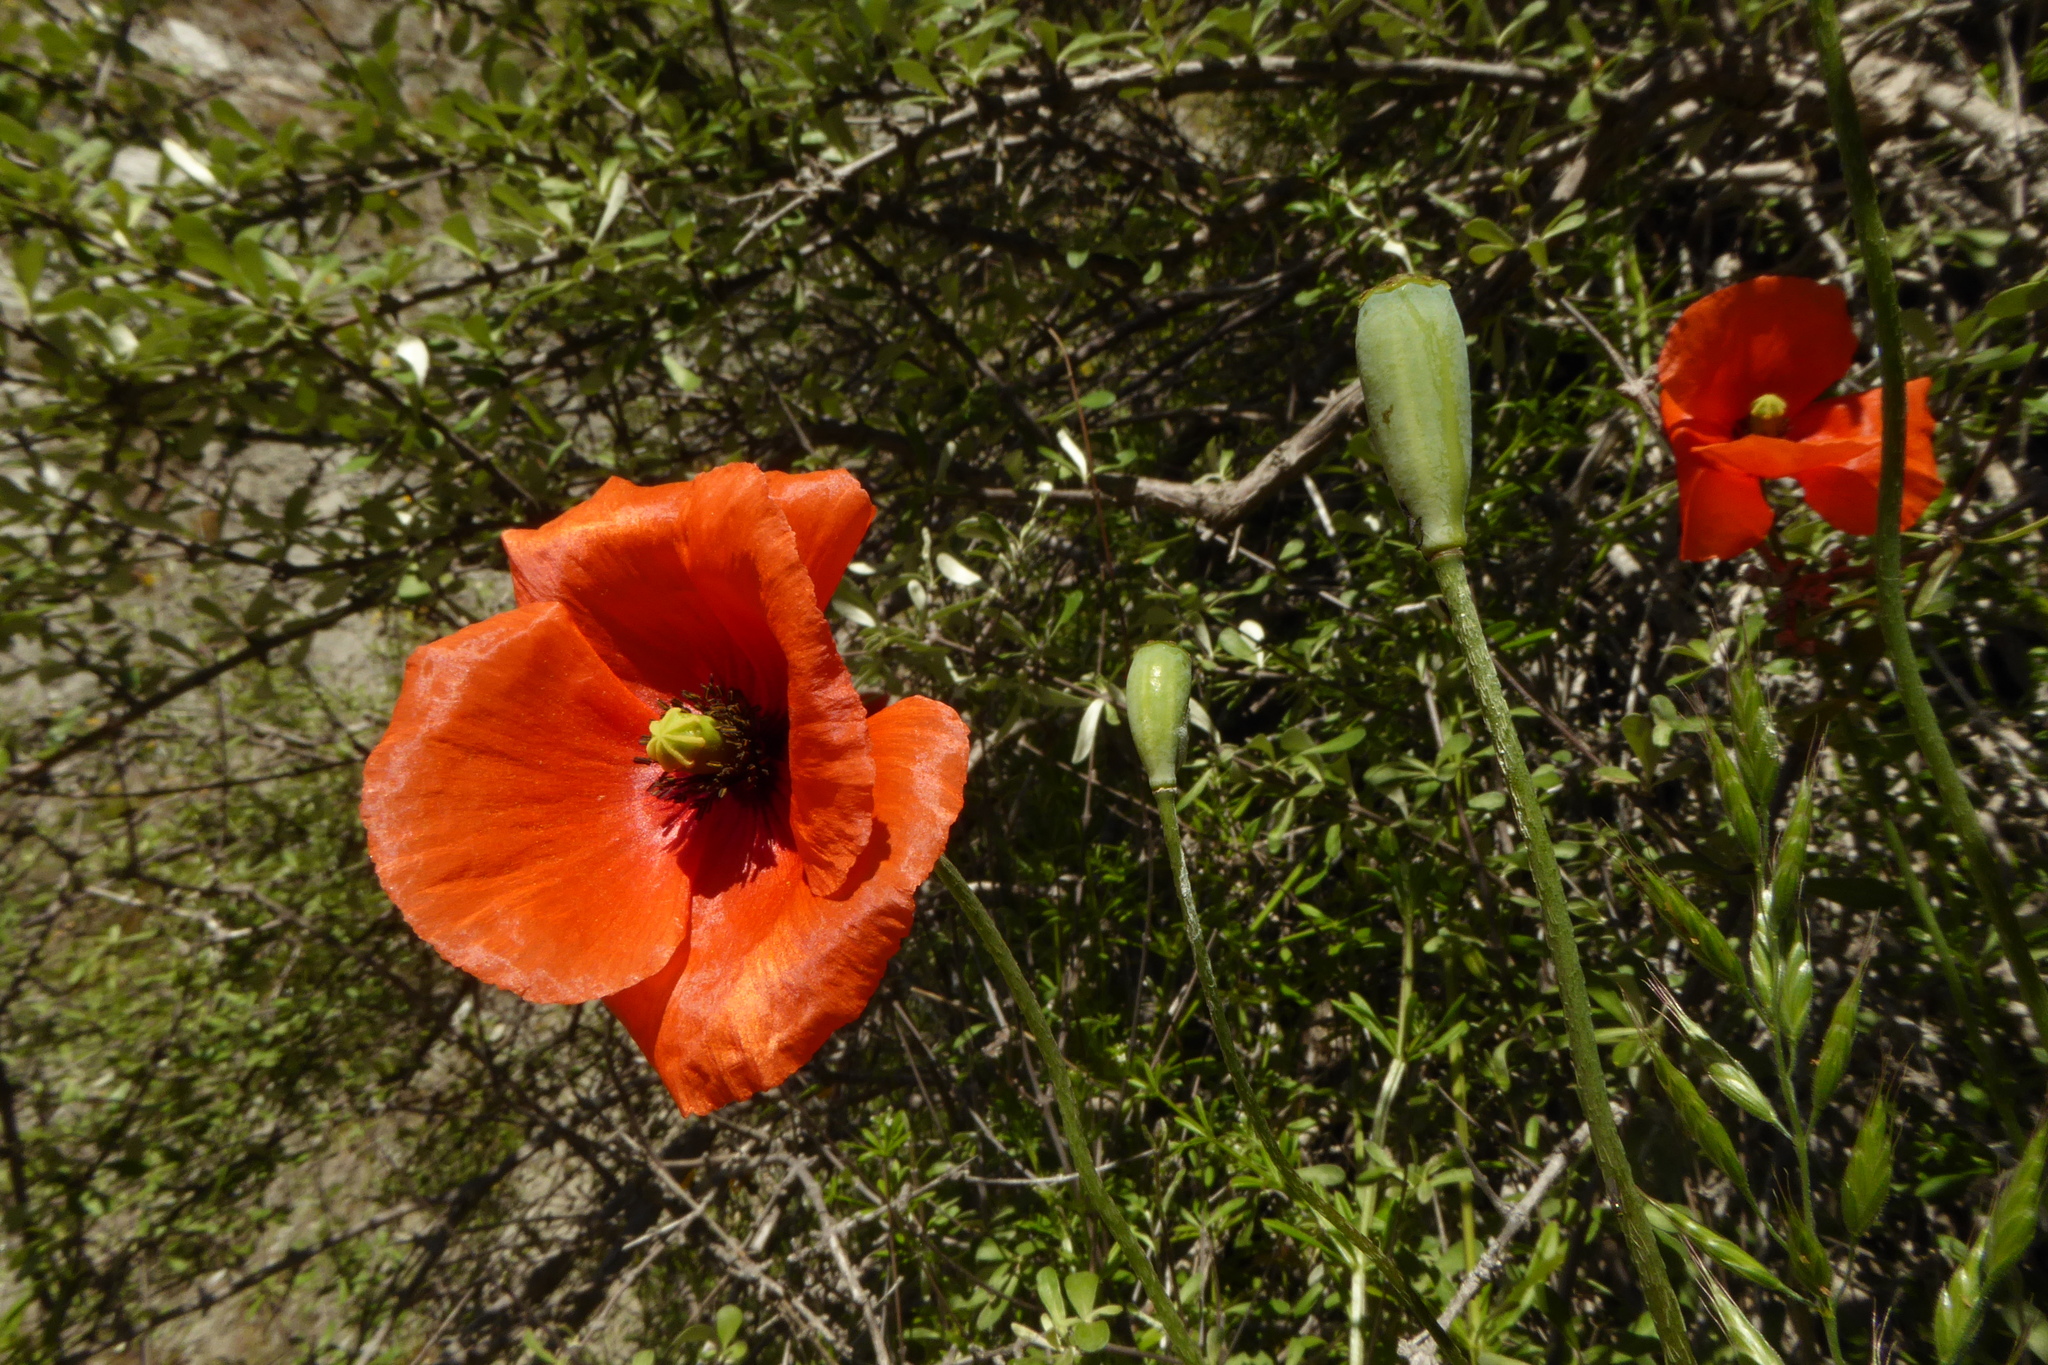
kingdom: Plantae
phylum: Tracheophyta
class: Magnoliopsida
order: Ranunculales
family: Papaveraceae
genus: Papaver
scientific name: Papaver dubium
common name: Long-headed poppy
